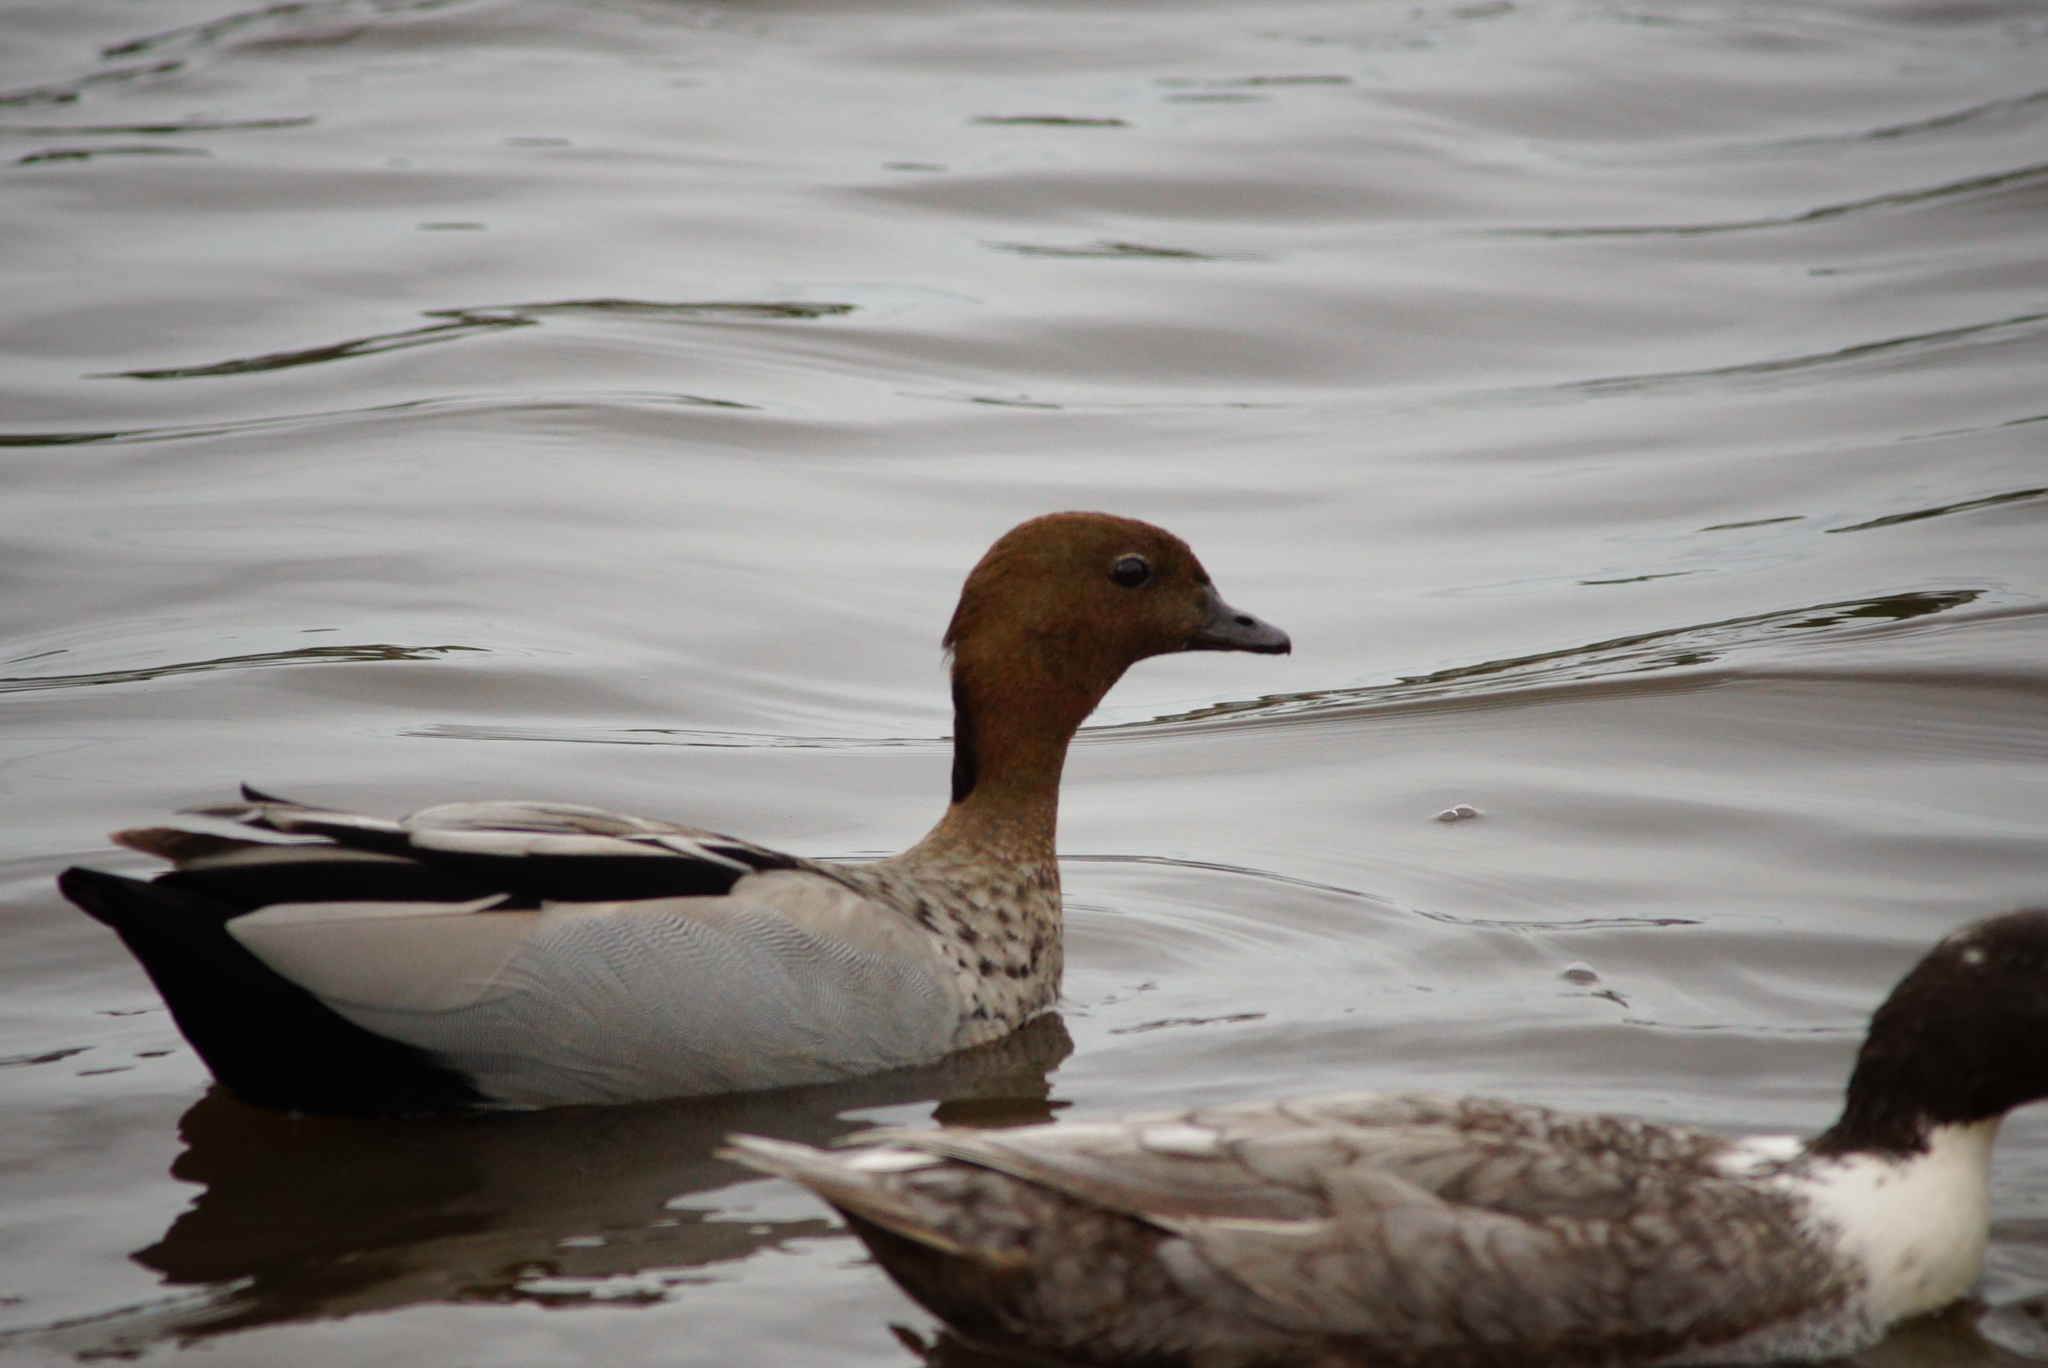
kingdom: Animalia
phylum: Chordata
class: Aves
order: Anseriformes
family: Anatidae
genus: Chenonetta
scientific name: Chenonetta jubata
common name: Maned duck
